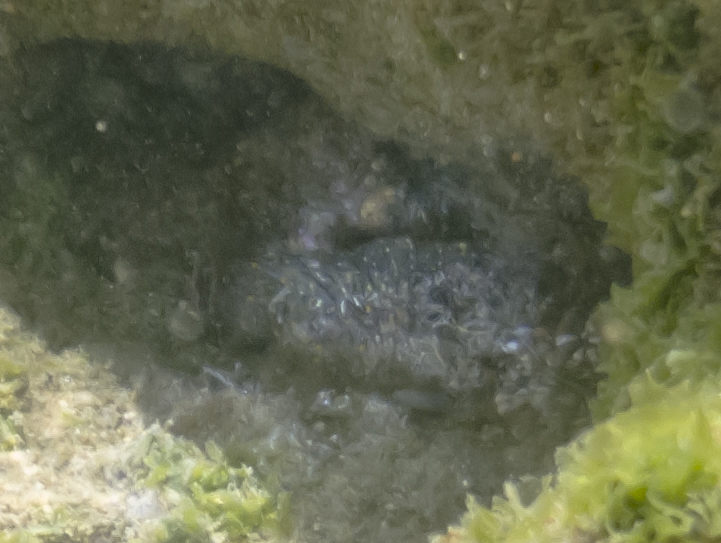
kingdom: Animalia
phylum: Arthropoda
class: Malacostraca
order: Decapoda
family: Palaemonidae
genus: Palaemon
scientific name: Palaemon
